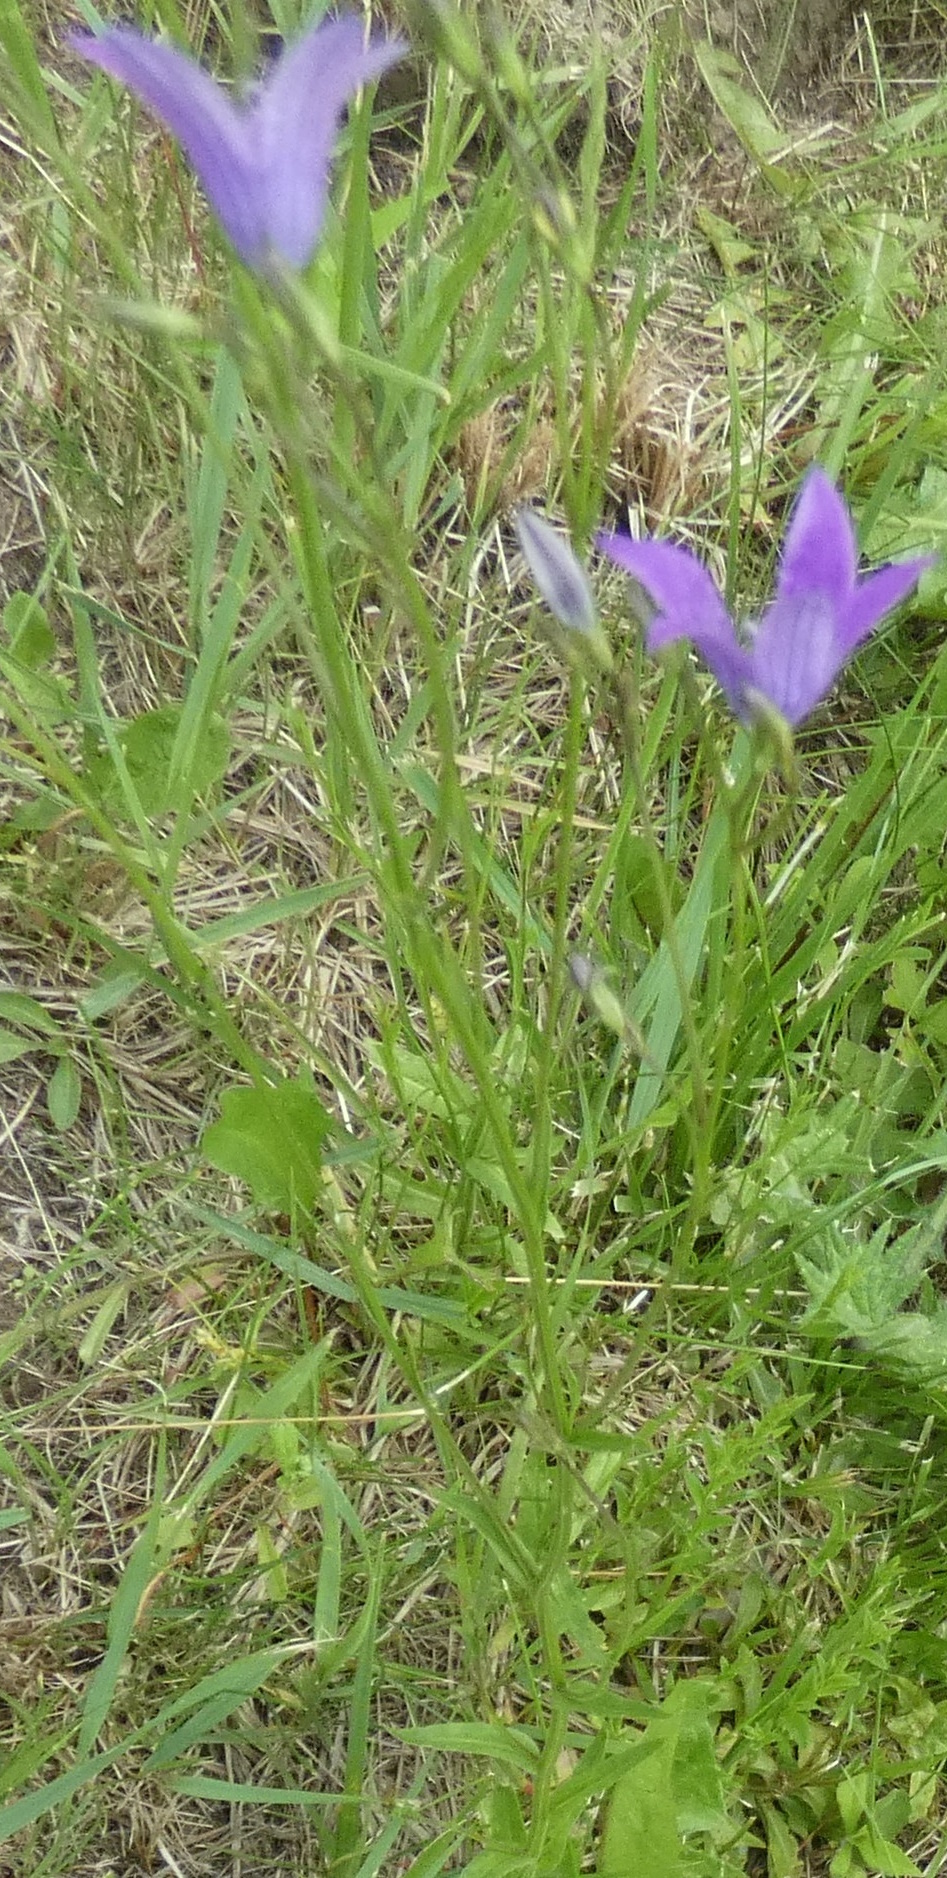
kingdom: Plantae
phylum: Tracheophyta
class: Magnoliopsida
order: Asterales
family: Campanulaceae
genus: Campanula
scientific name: Campanula patula
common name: Spreading bellflower
